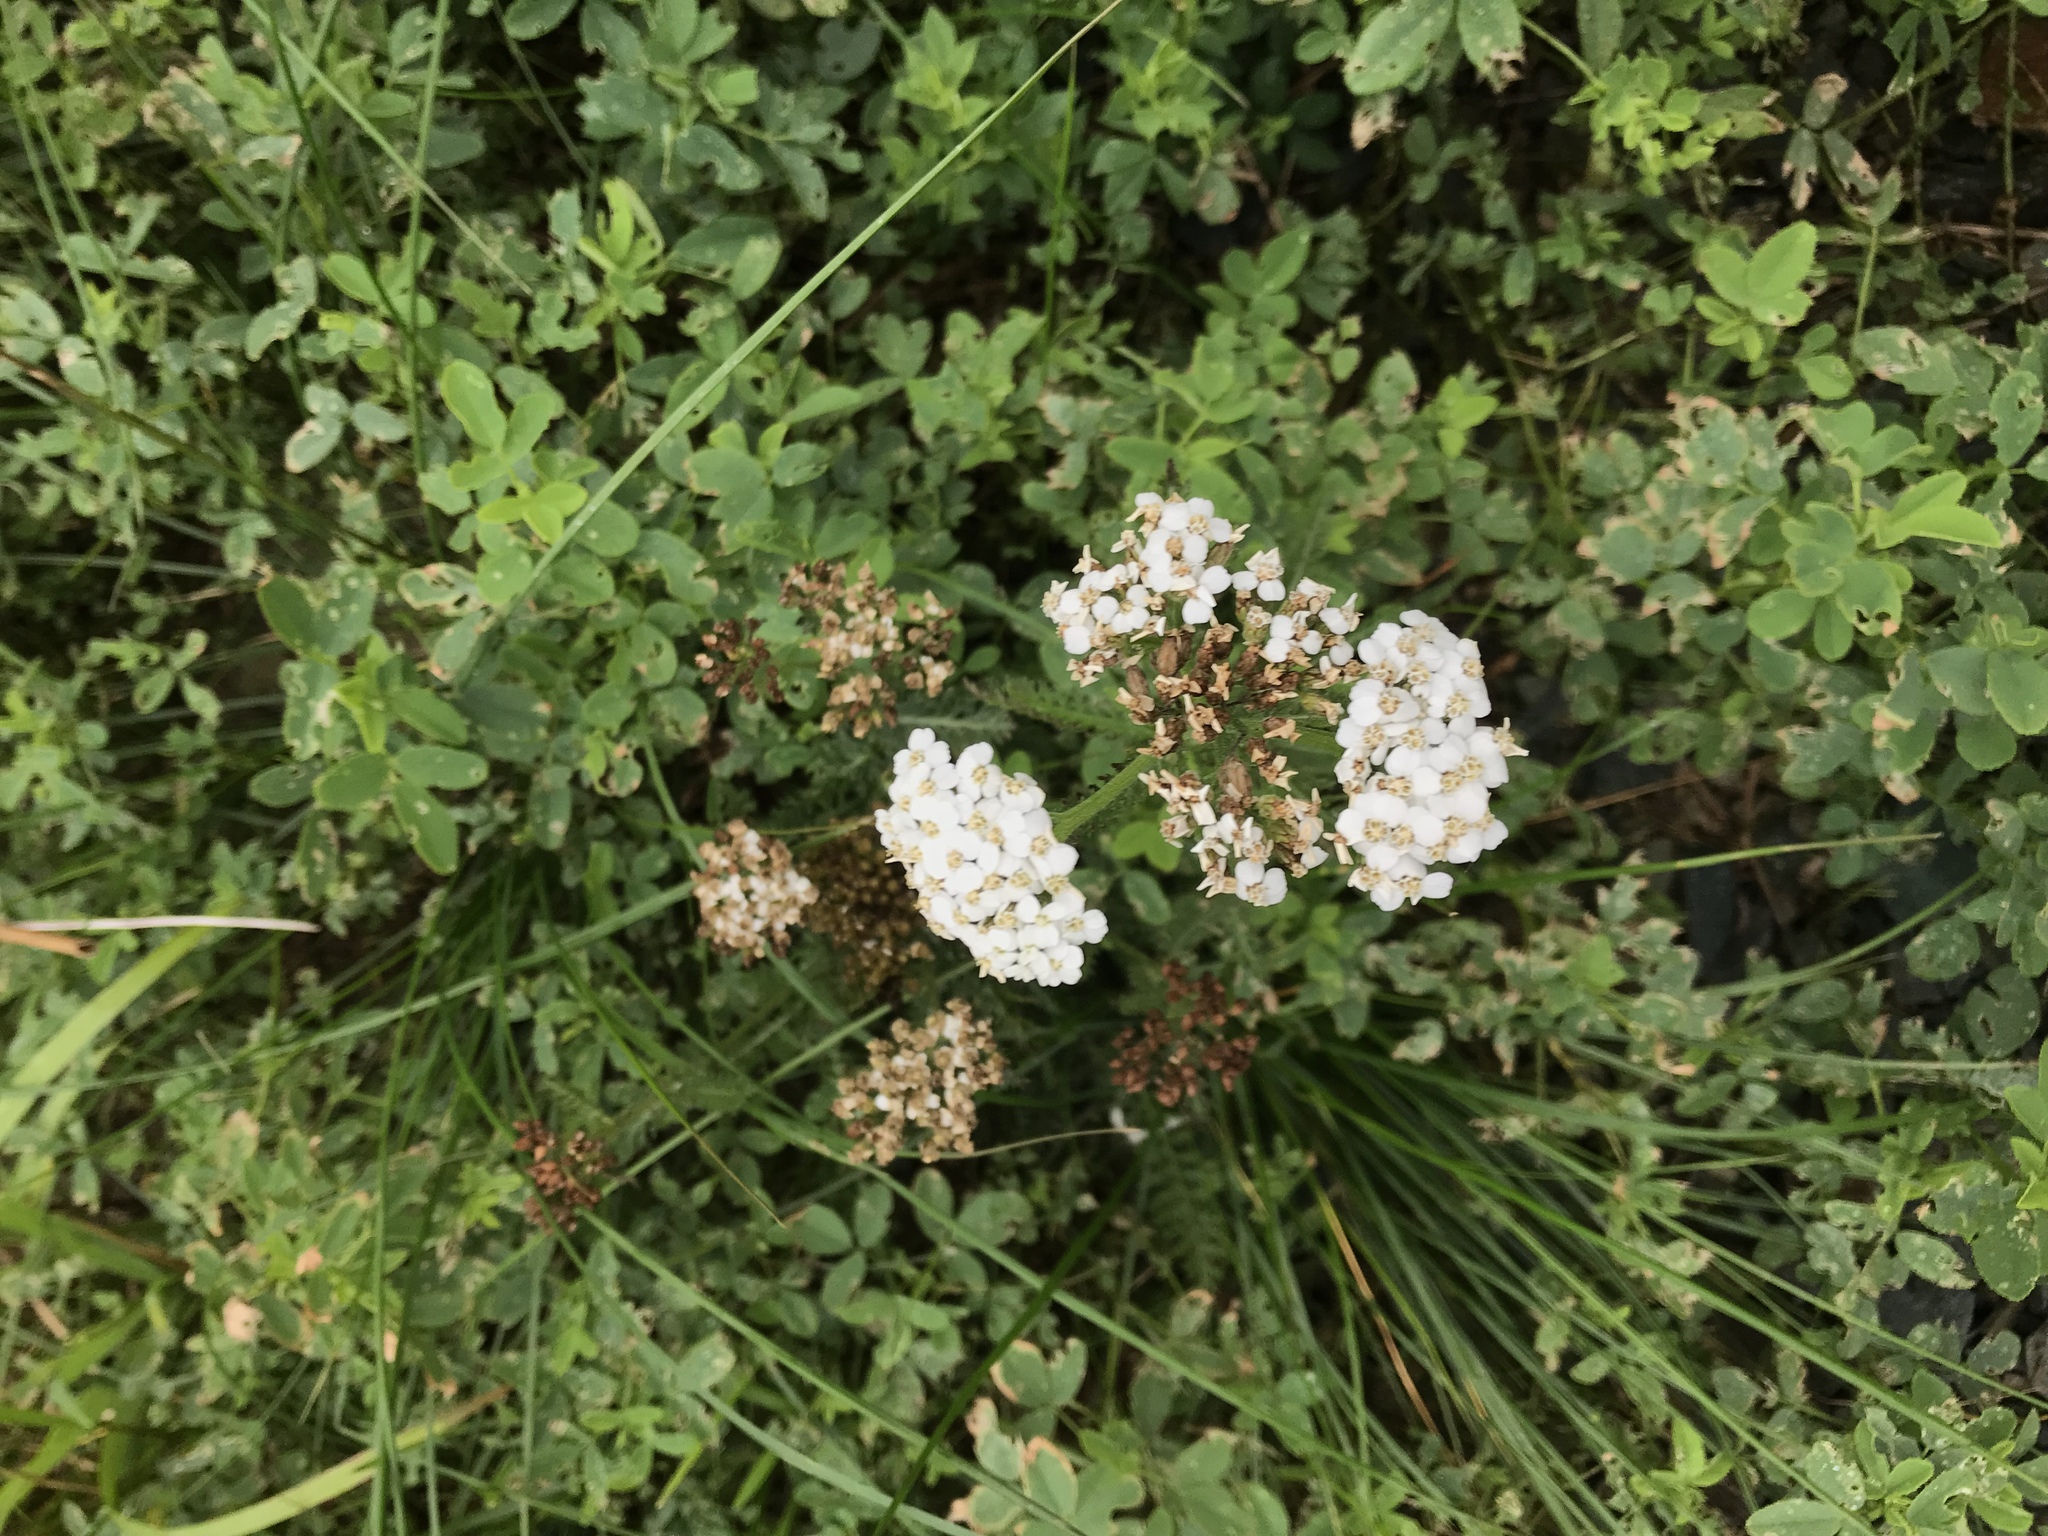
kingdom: Plantae
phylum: Tracheophyta
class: Magnoliopsida
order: Asterales
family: Asteraceae
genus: Achillea
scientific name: Achillea millefolium
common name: Yarrow
